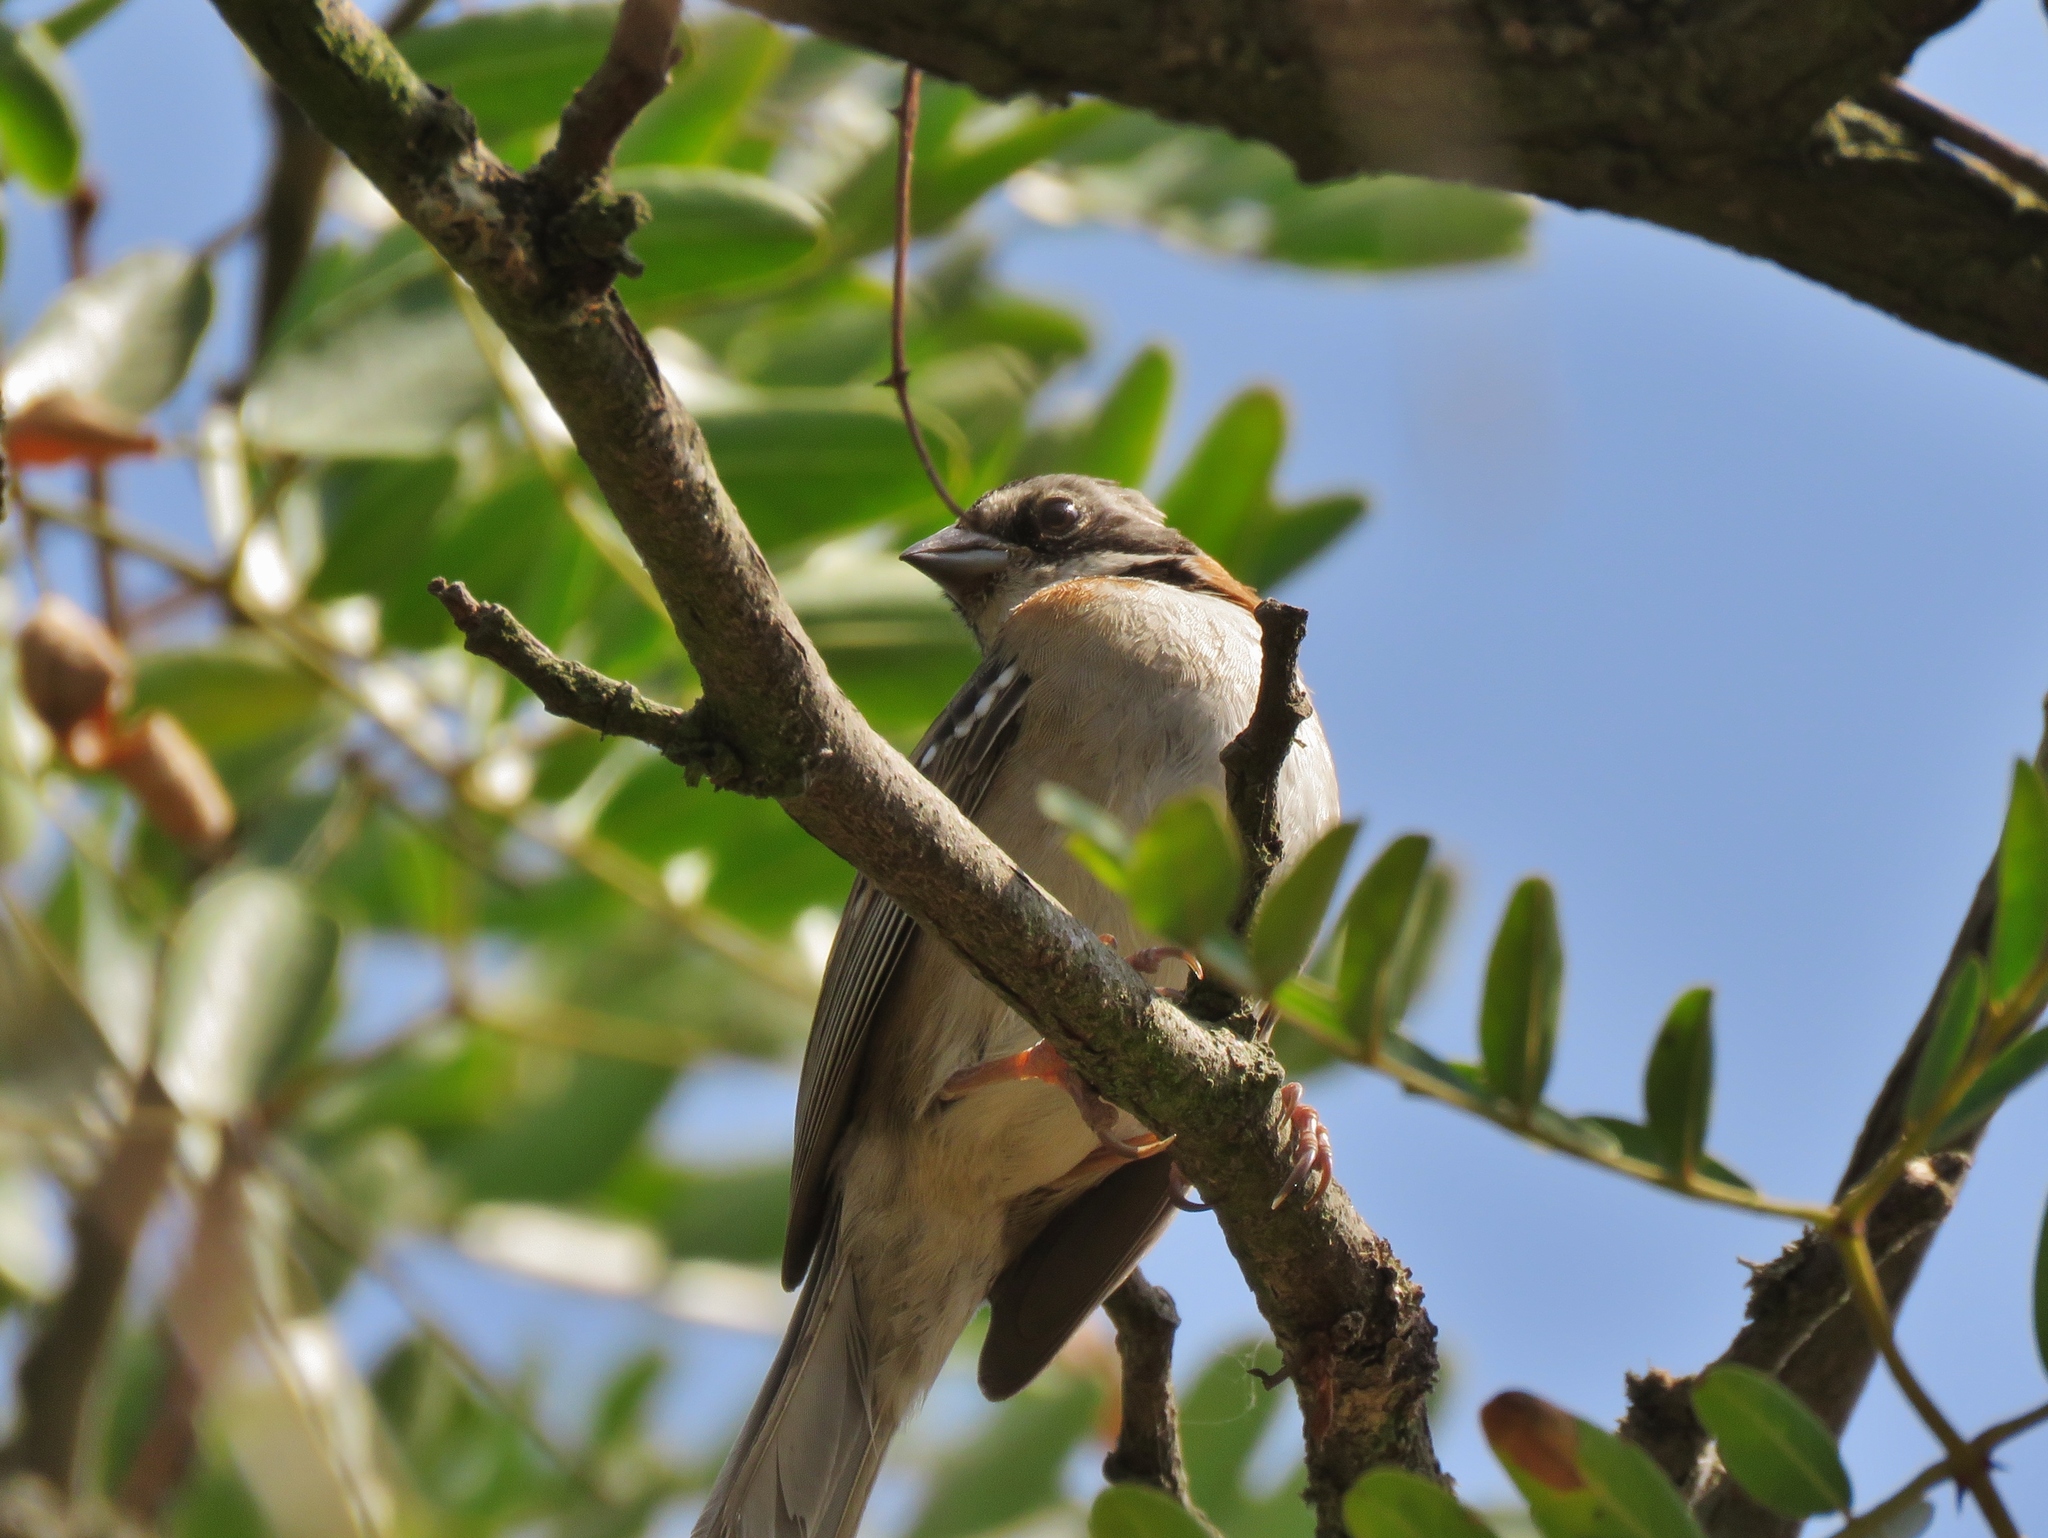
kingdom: Animalia
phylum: Chordata
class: Aves
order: Passeriformes
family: Passerellidae
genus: Zonotrichia
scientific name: Zonotrichia capensis
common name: Rufous-collared sparrow
